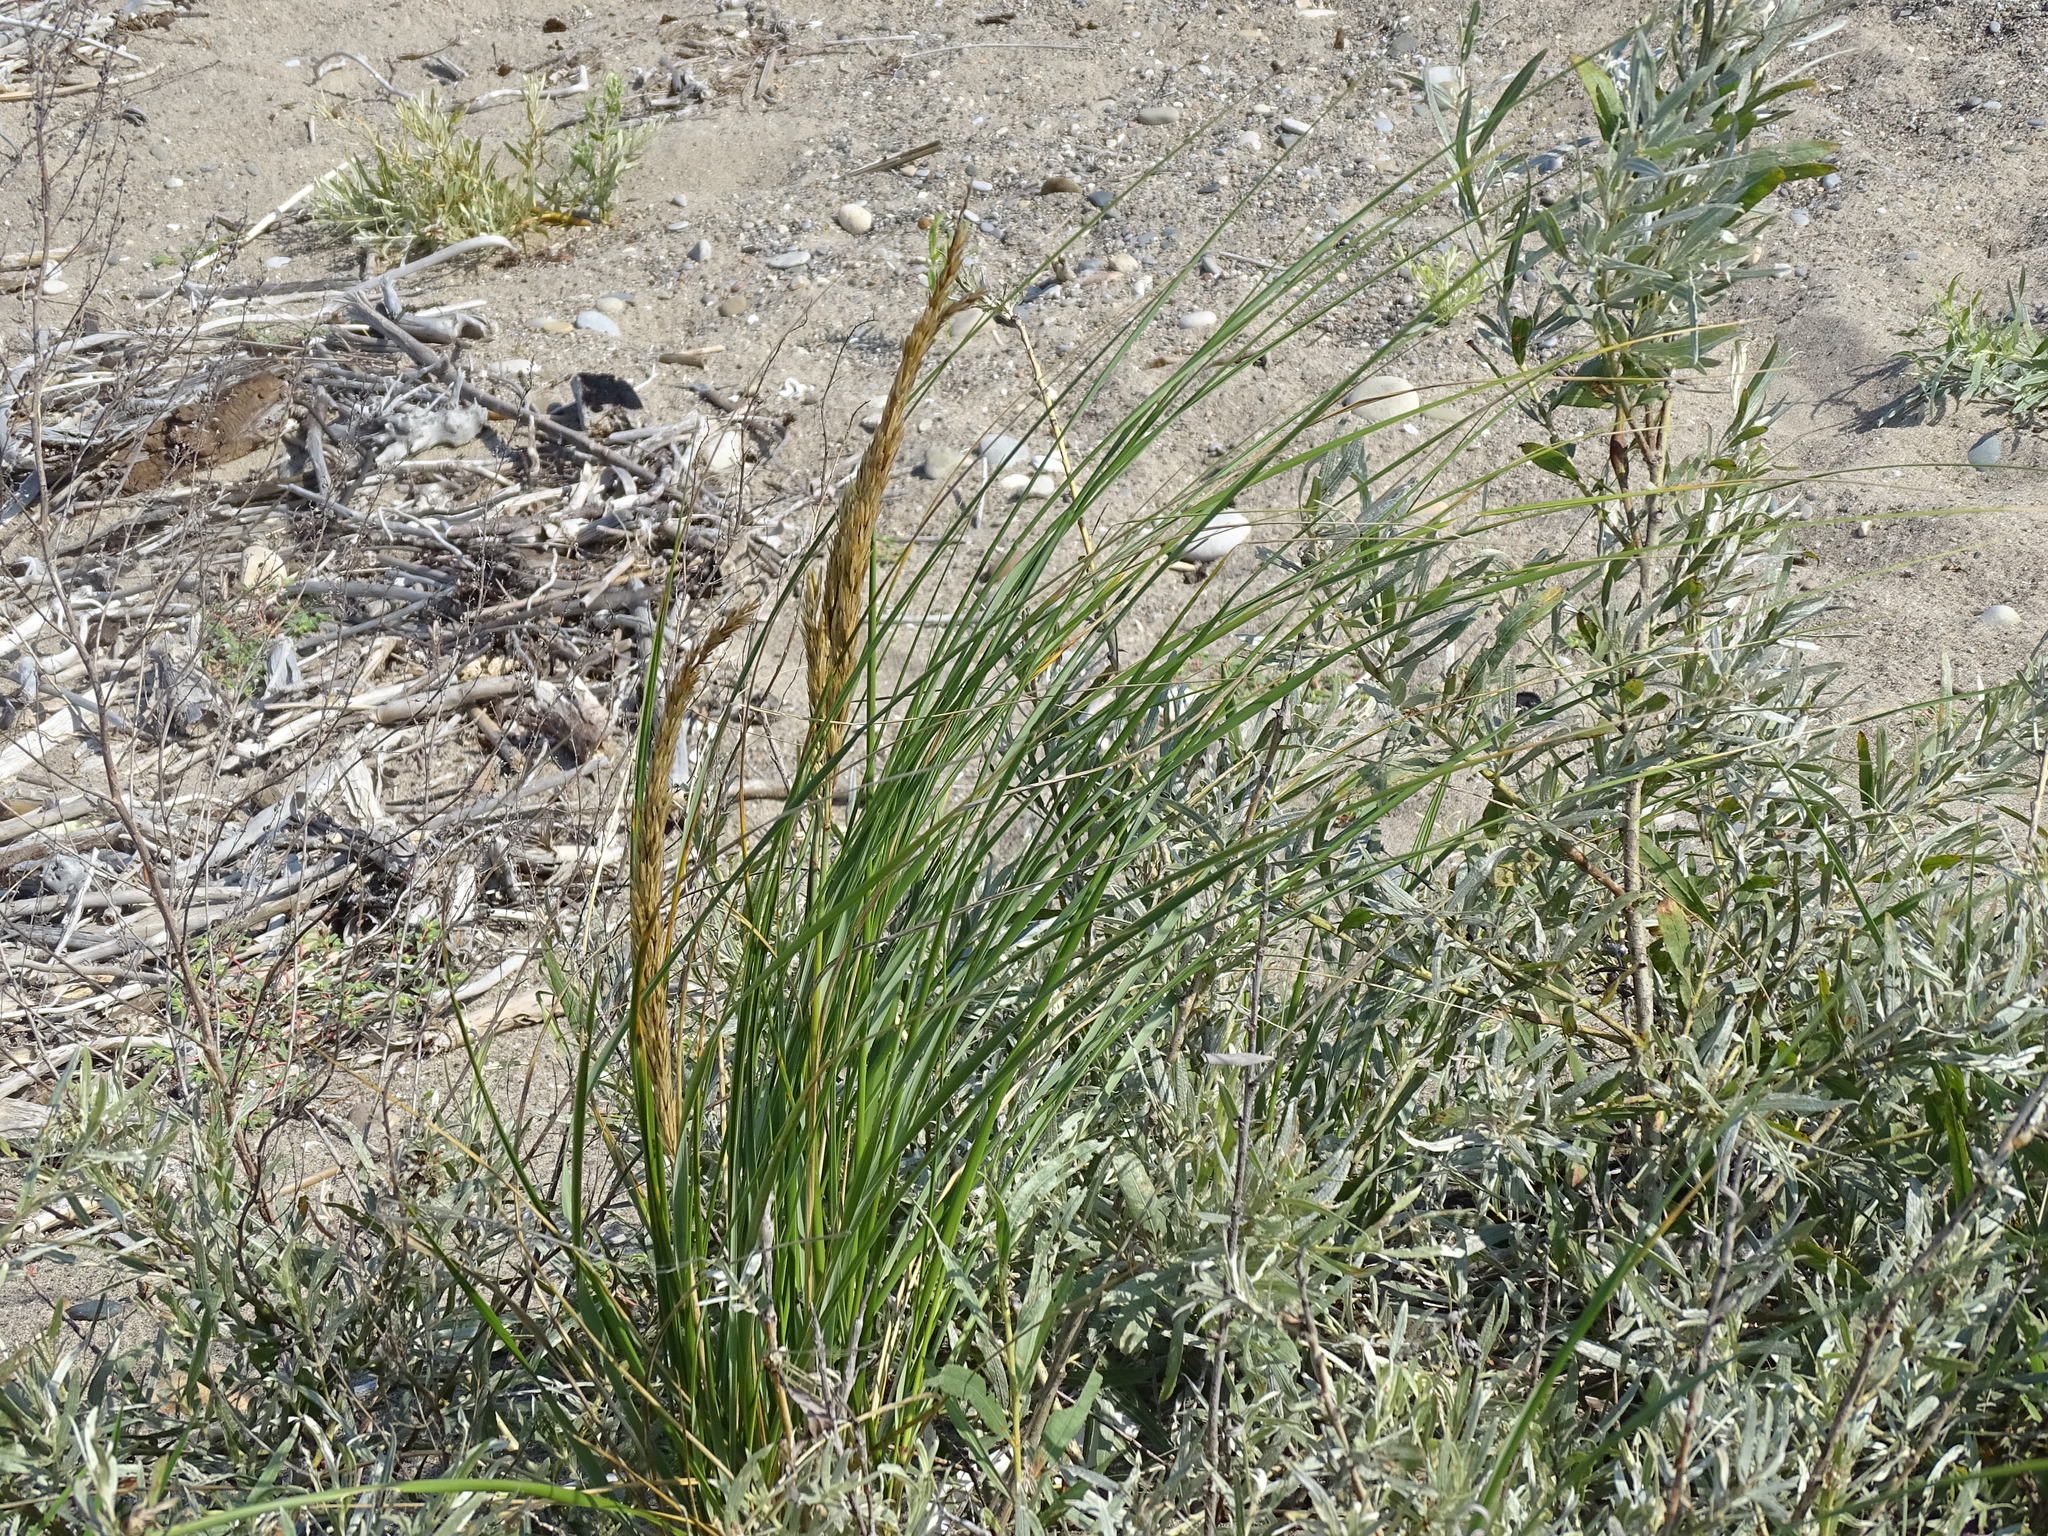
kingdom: Plantae
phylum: Tracheophyta
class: Liliopsida
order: Poales
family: Poaceae
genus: Calamagrostis
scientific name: Calamagrostis breviligulata
